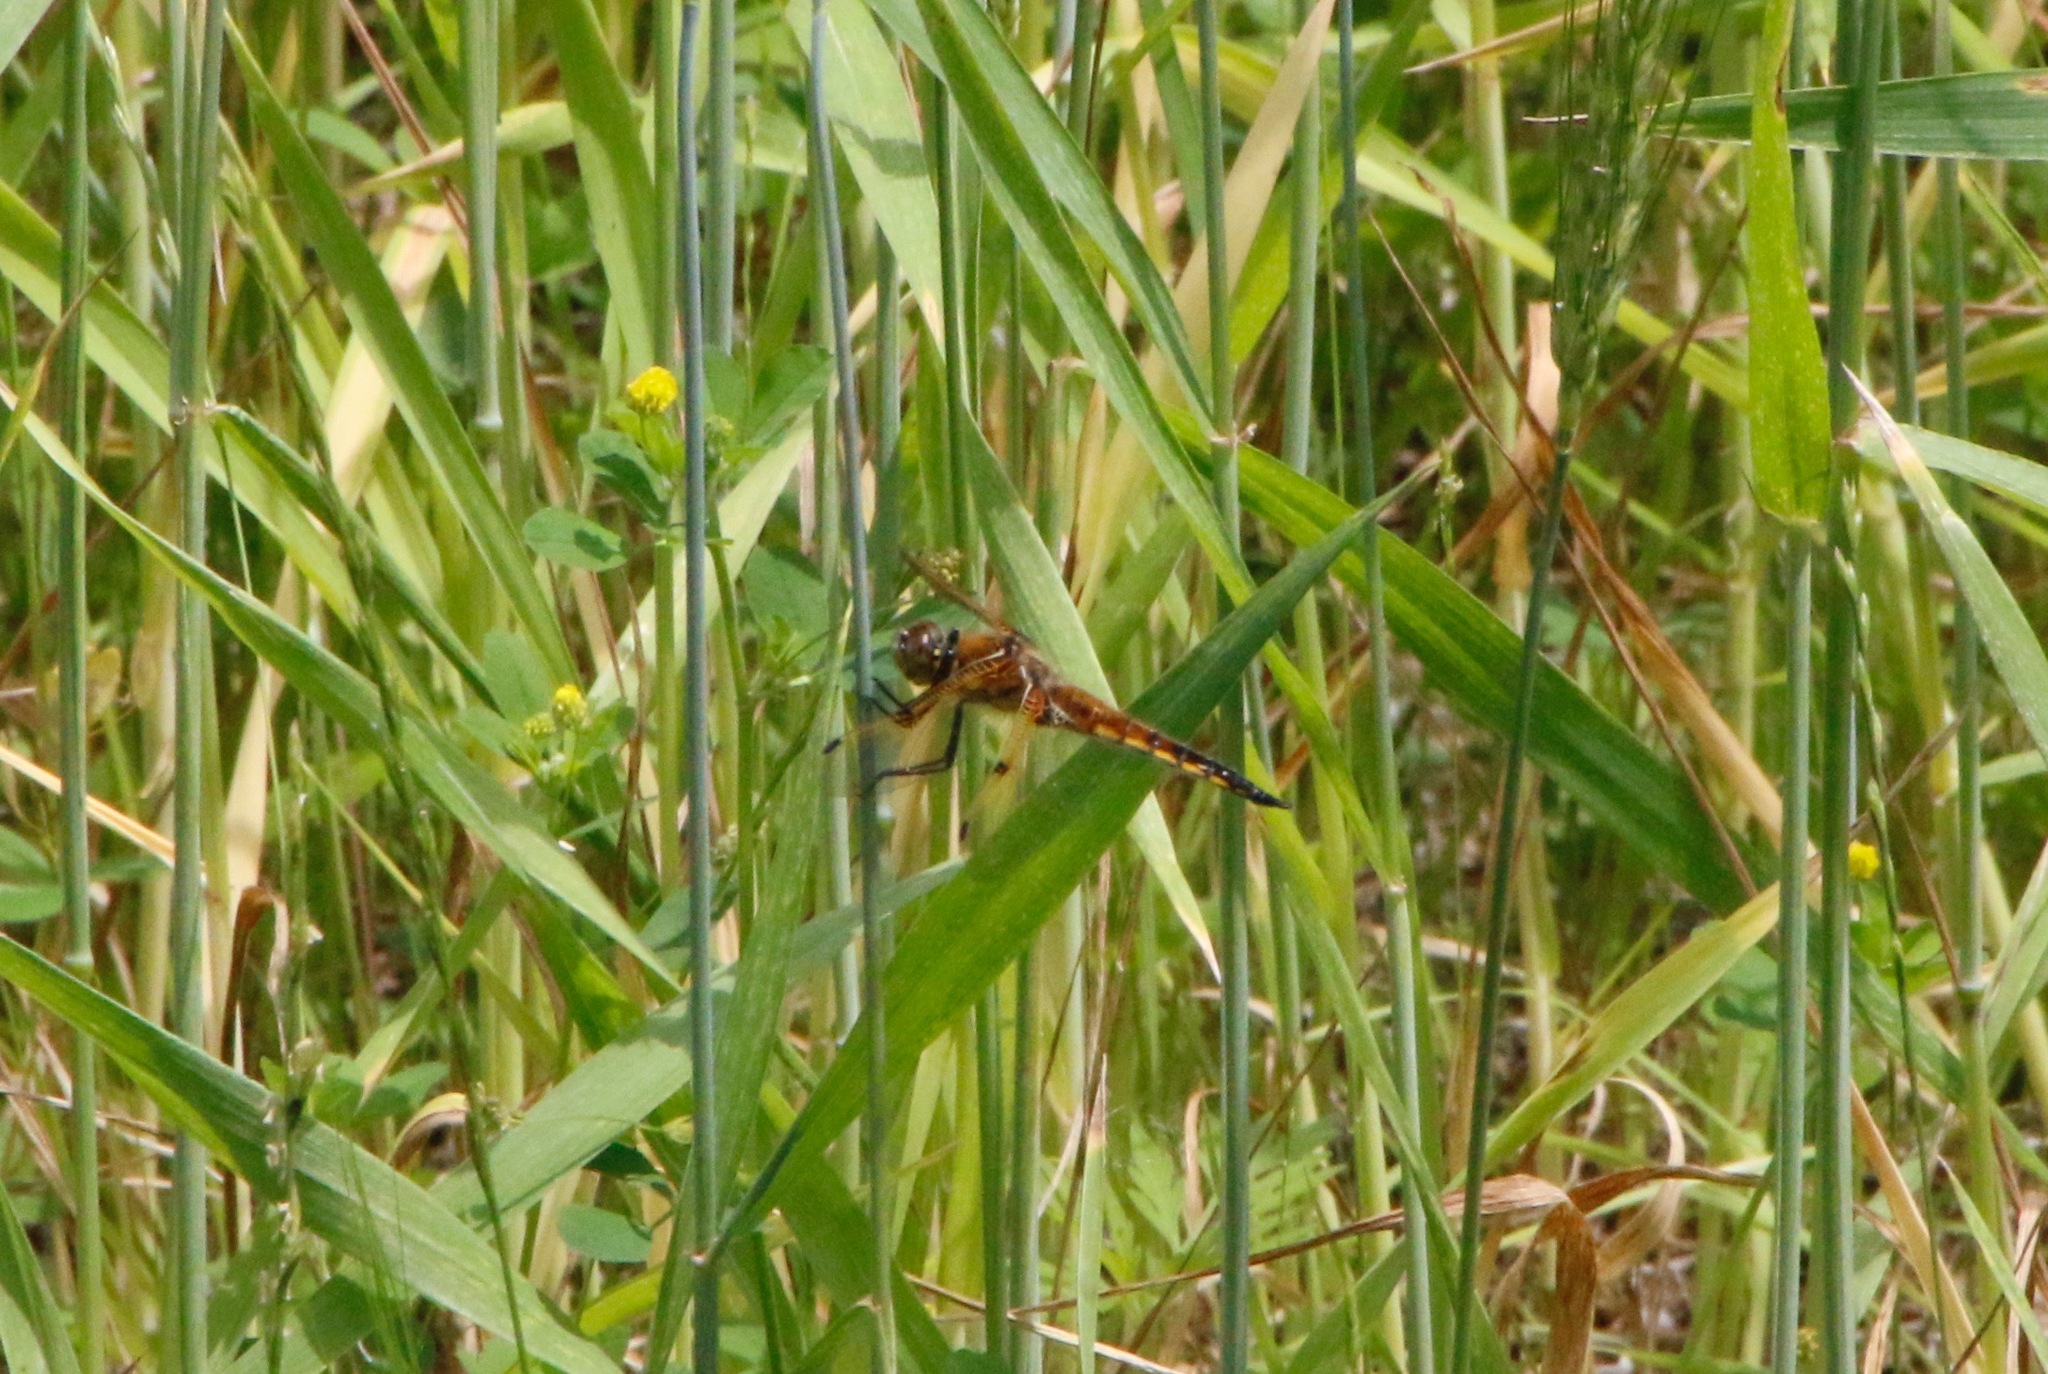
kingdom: Animalia
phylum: Arthropoda
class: Insecta
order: Odonata
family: Libellulidae
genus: Libellula
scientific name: Libellula quadrimaculata
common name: Four-spotted chaser
